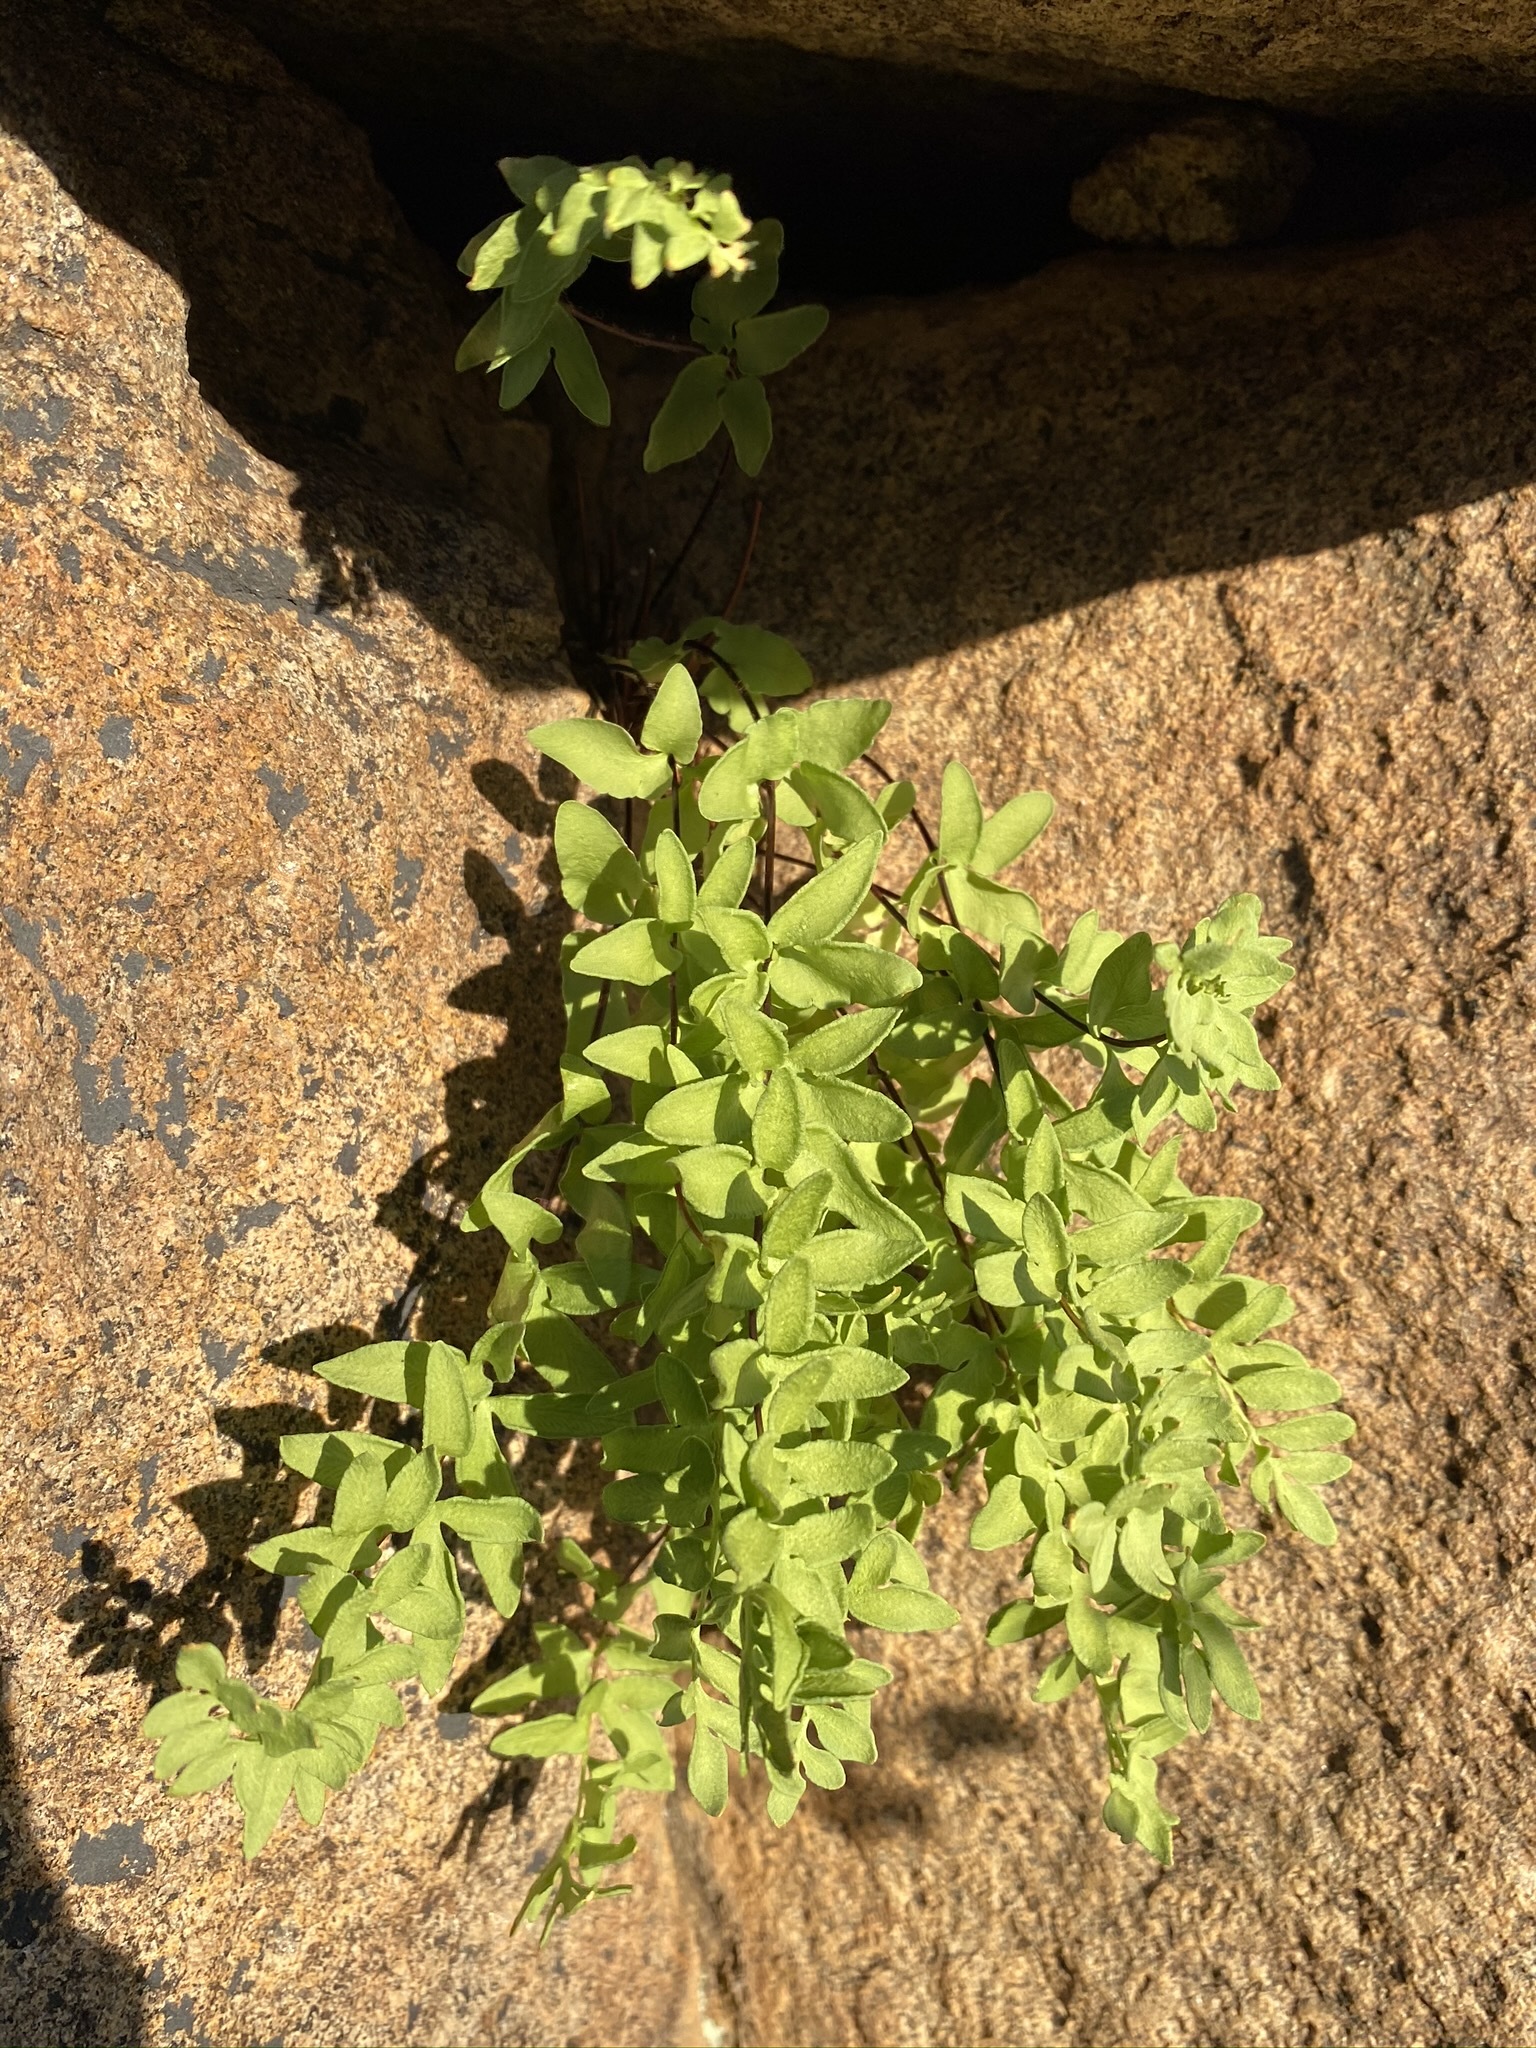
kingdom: Plantae
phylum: Tracheophyta
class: Polypodiopsida
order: Polypodiales
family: Pteridaceae
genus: Pellaea
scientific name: Pellaea breweri
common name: Brewer's cliffbrake
